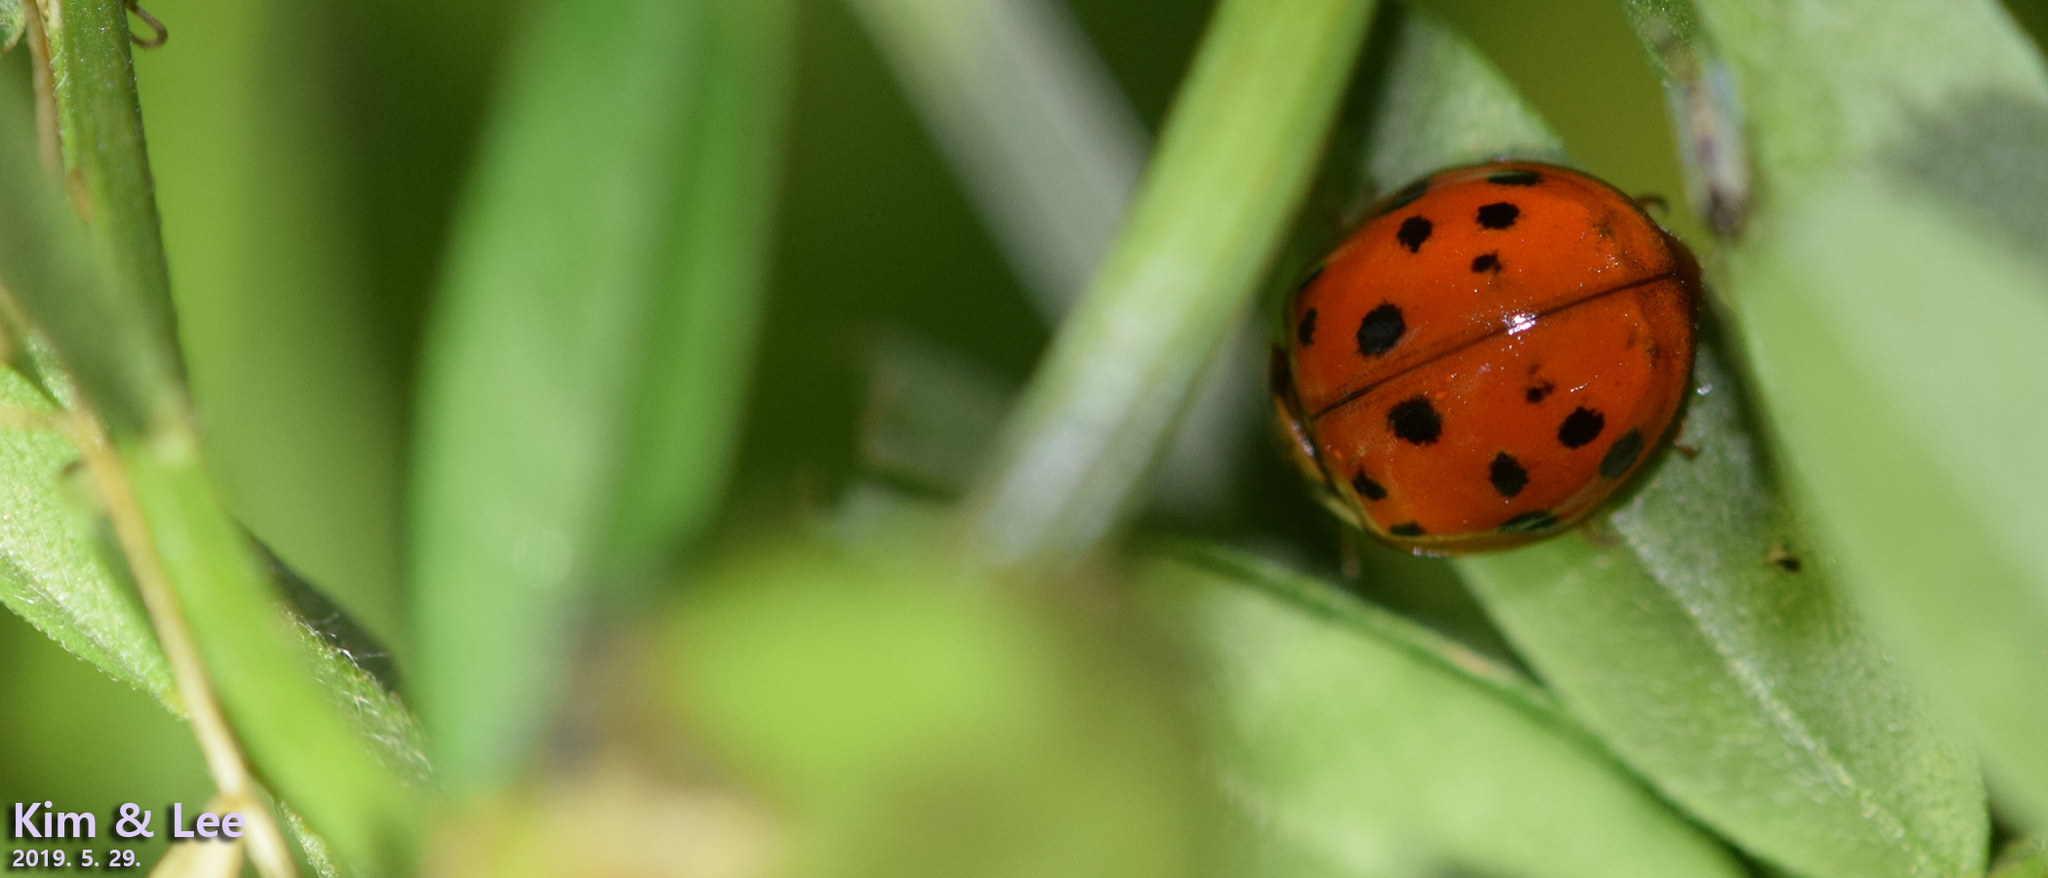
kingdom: Animalia
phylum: Arthropoda
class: Insecta
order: Coleoptera
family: Coccinellidae
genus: Harmonia
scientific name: Harmonia axyridis
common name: Harlequin ladybird
